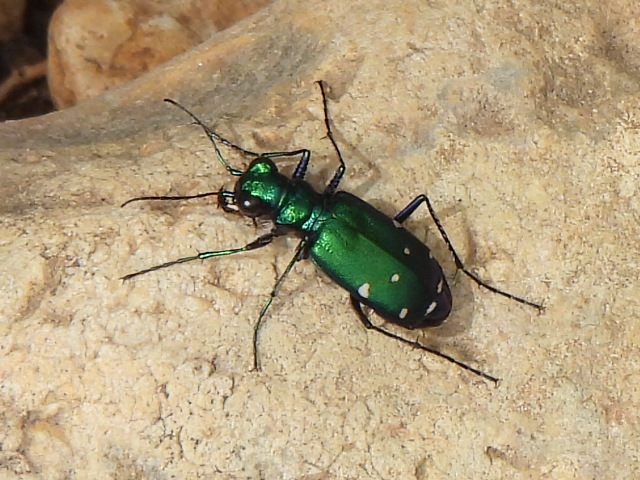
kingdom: Animalia
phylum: Arthropoda
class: Insecta
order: Coleoptera
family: Carabidae
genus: Cicindela
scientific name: Cicindela sexguttata
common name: Six-spotted tiger beetle
